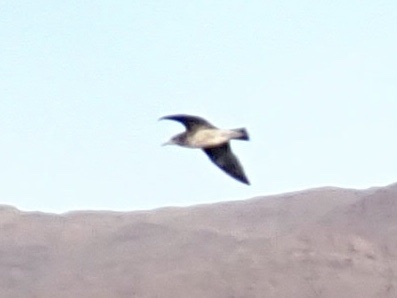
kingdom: Animalia
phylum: Chordata
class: Aves
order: Charadriiformes
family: Laridae
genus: Larus
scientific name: Larus
